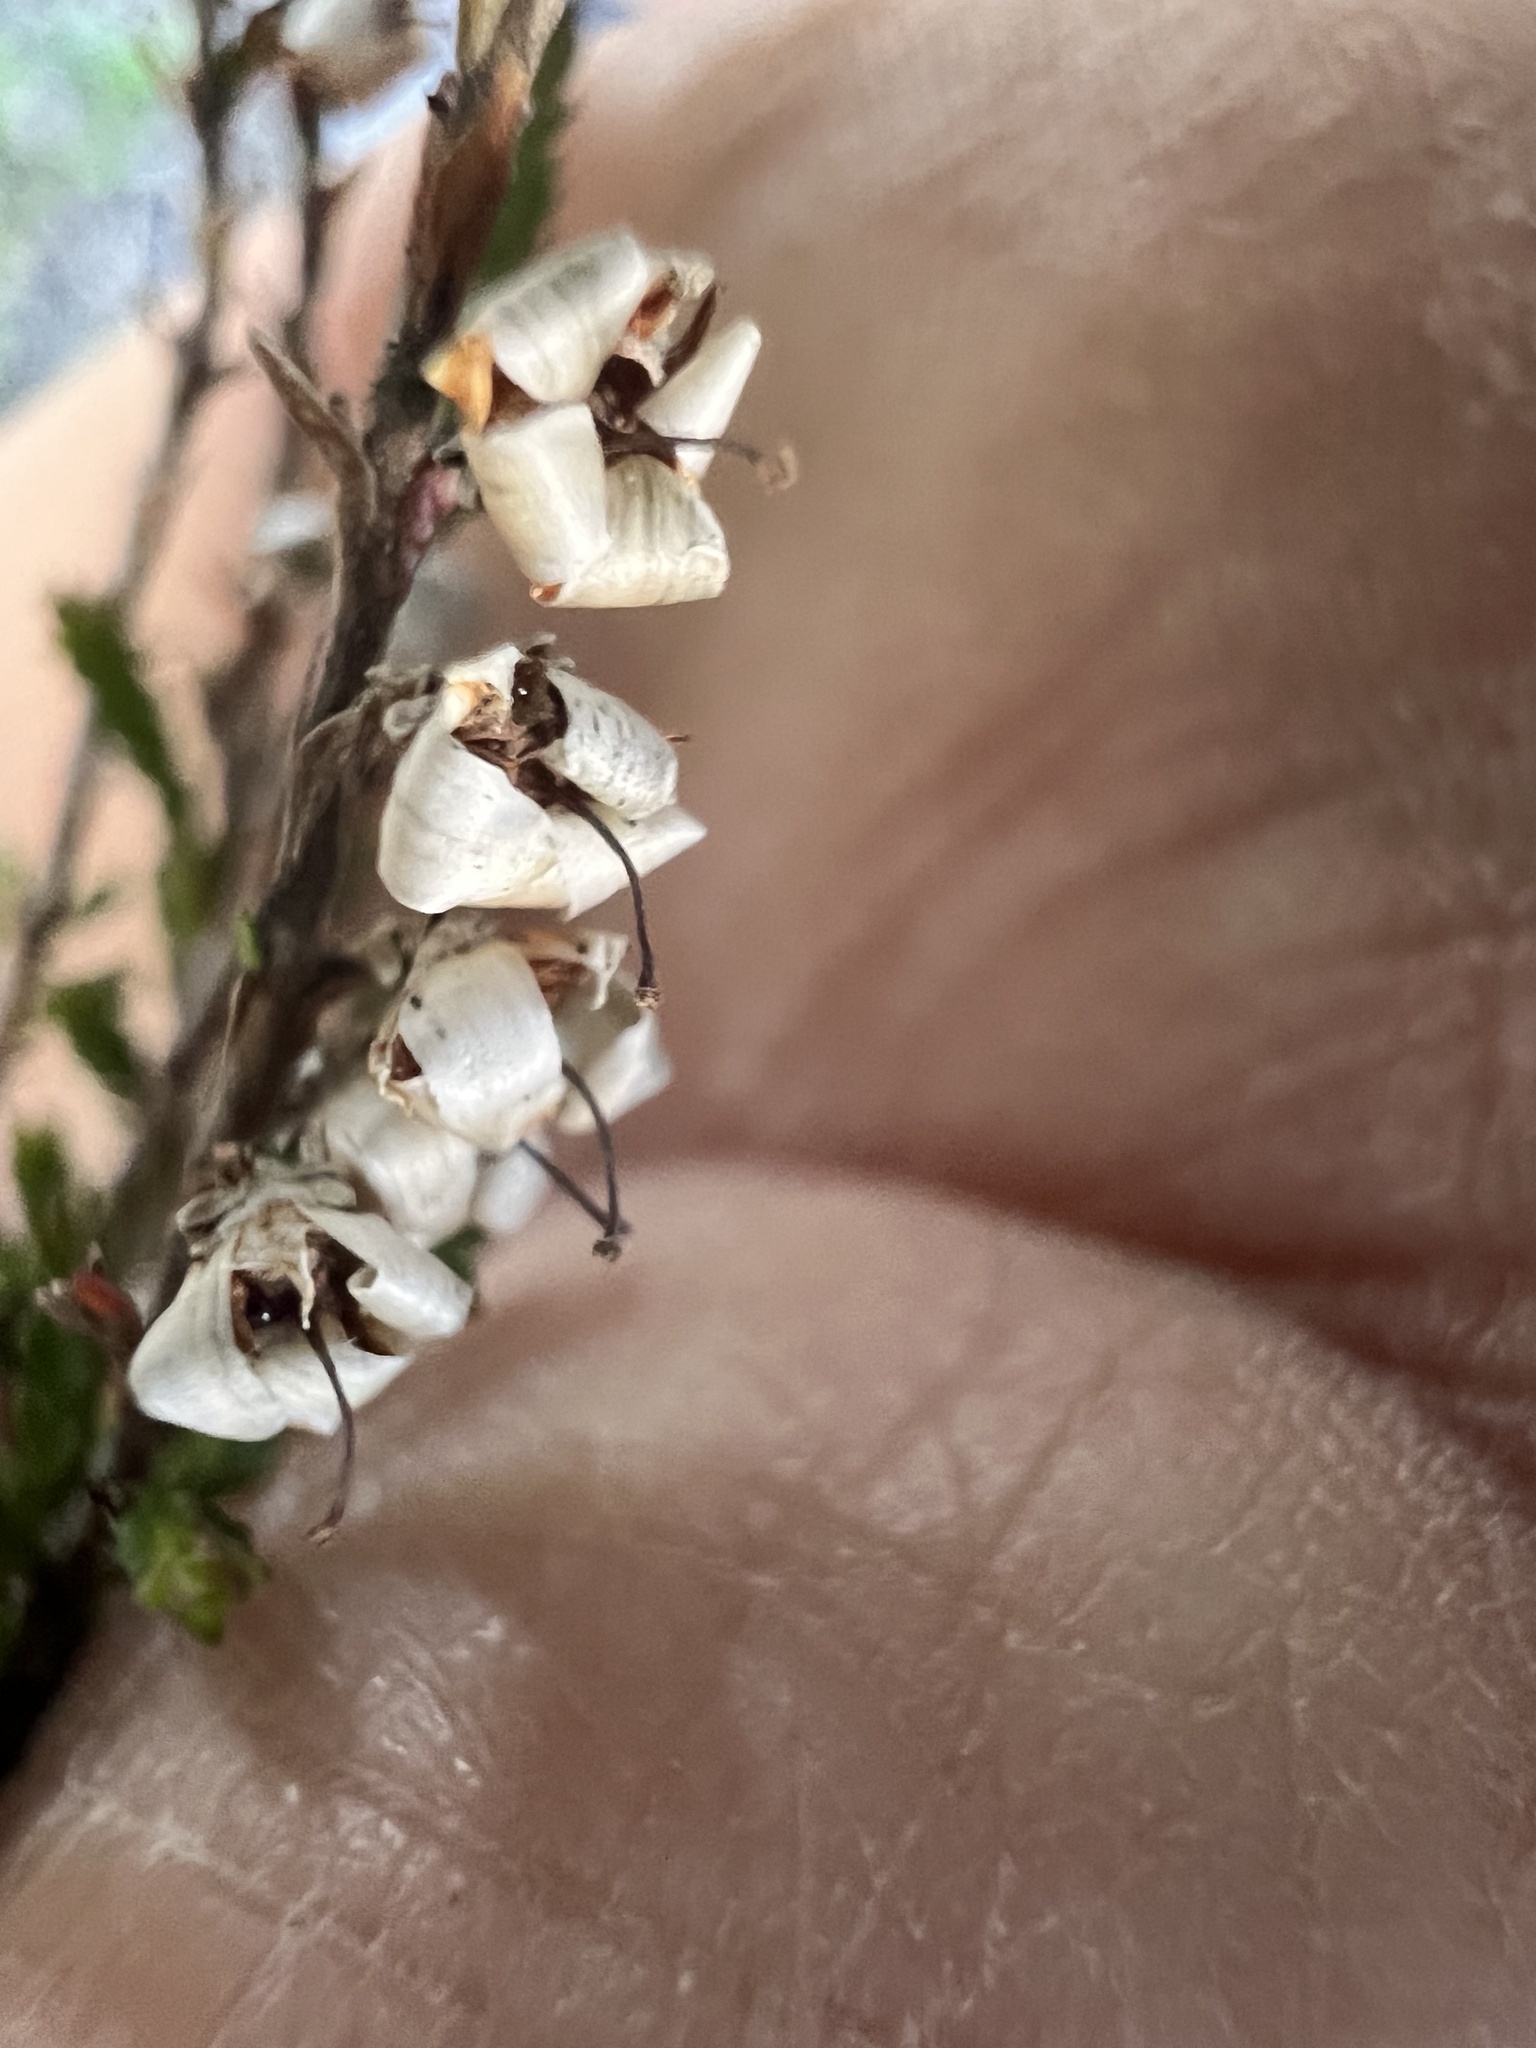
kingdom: Plantae
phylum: Tracheophyta
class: Magnoliopsida
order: Ericales
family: Ericaceae
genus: Calluna
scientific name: Calluna vulgaris
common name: Heather
